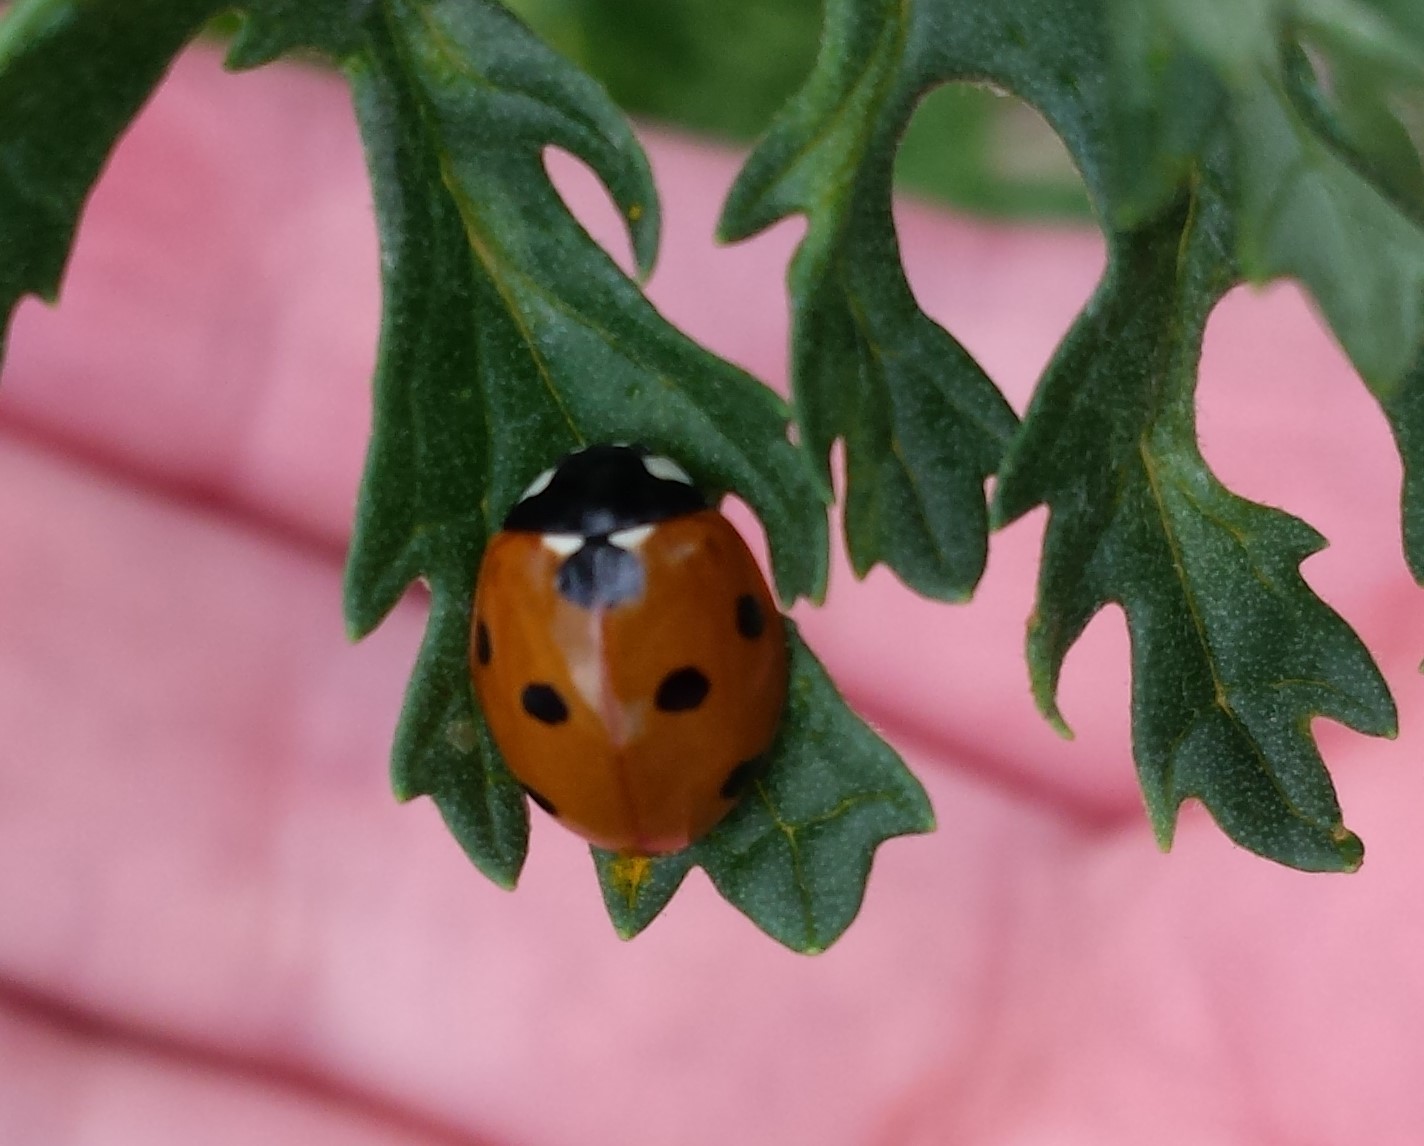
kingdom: Animalia
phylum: Arthropoda
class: Insecta
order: Coleoptera
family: Coccinellidae
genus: Coccinella
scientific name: Coccinella septempunctata
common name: Sevenspotted lady beetle
